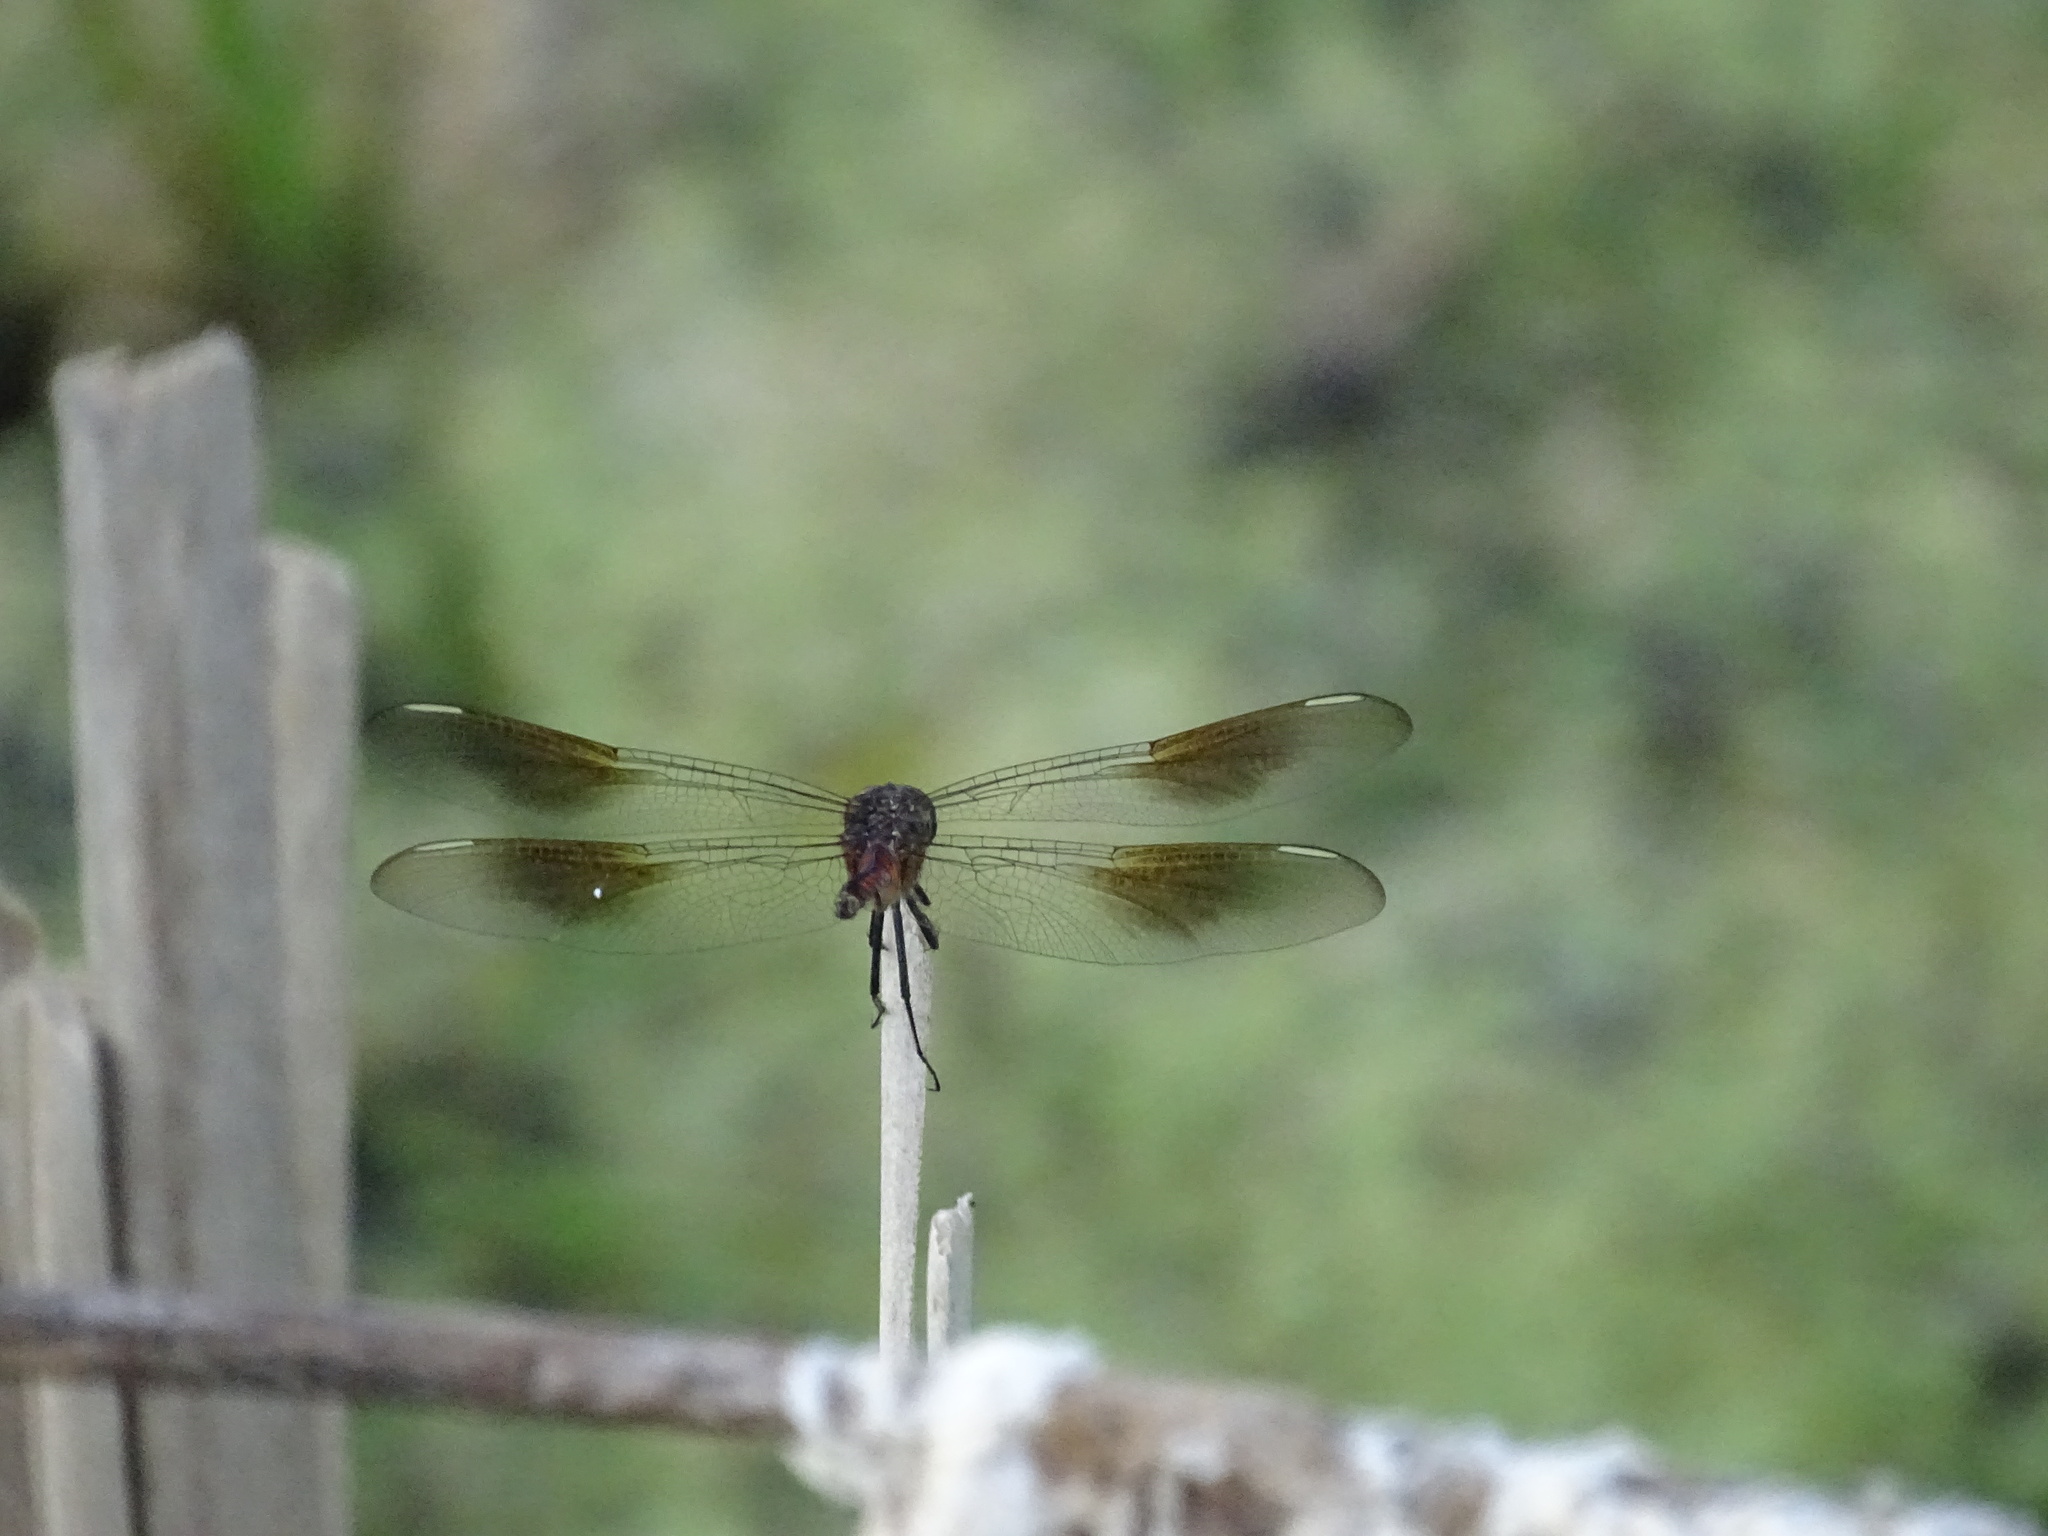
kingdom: Animalia
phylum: Arthropoda
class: Insecta
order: Odonata
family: Libellulidae
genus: Brachymesia
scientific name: Brachymesia gravida
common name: Four-spotted pennant
